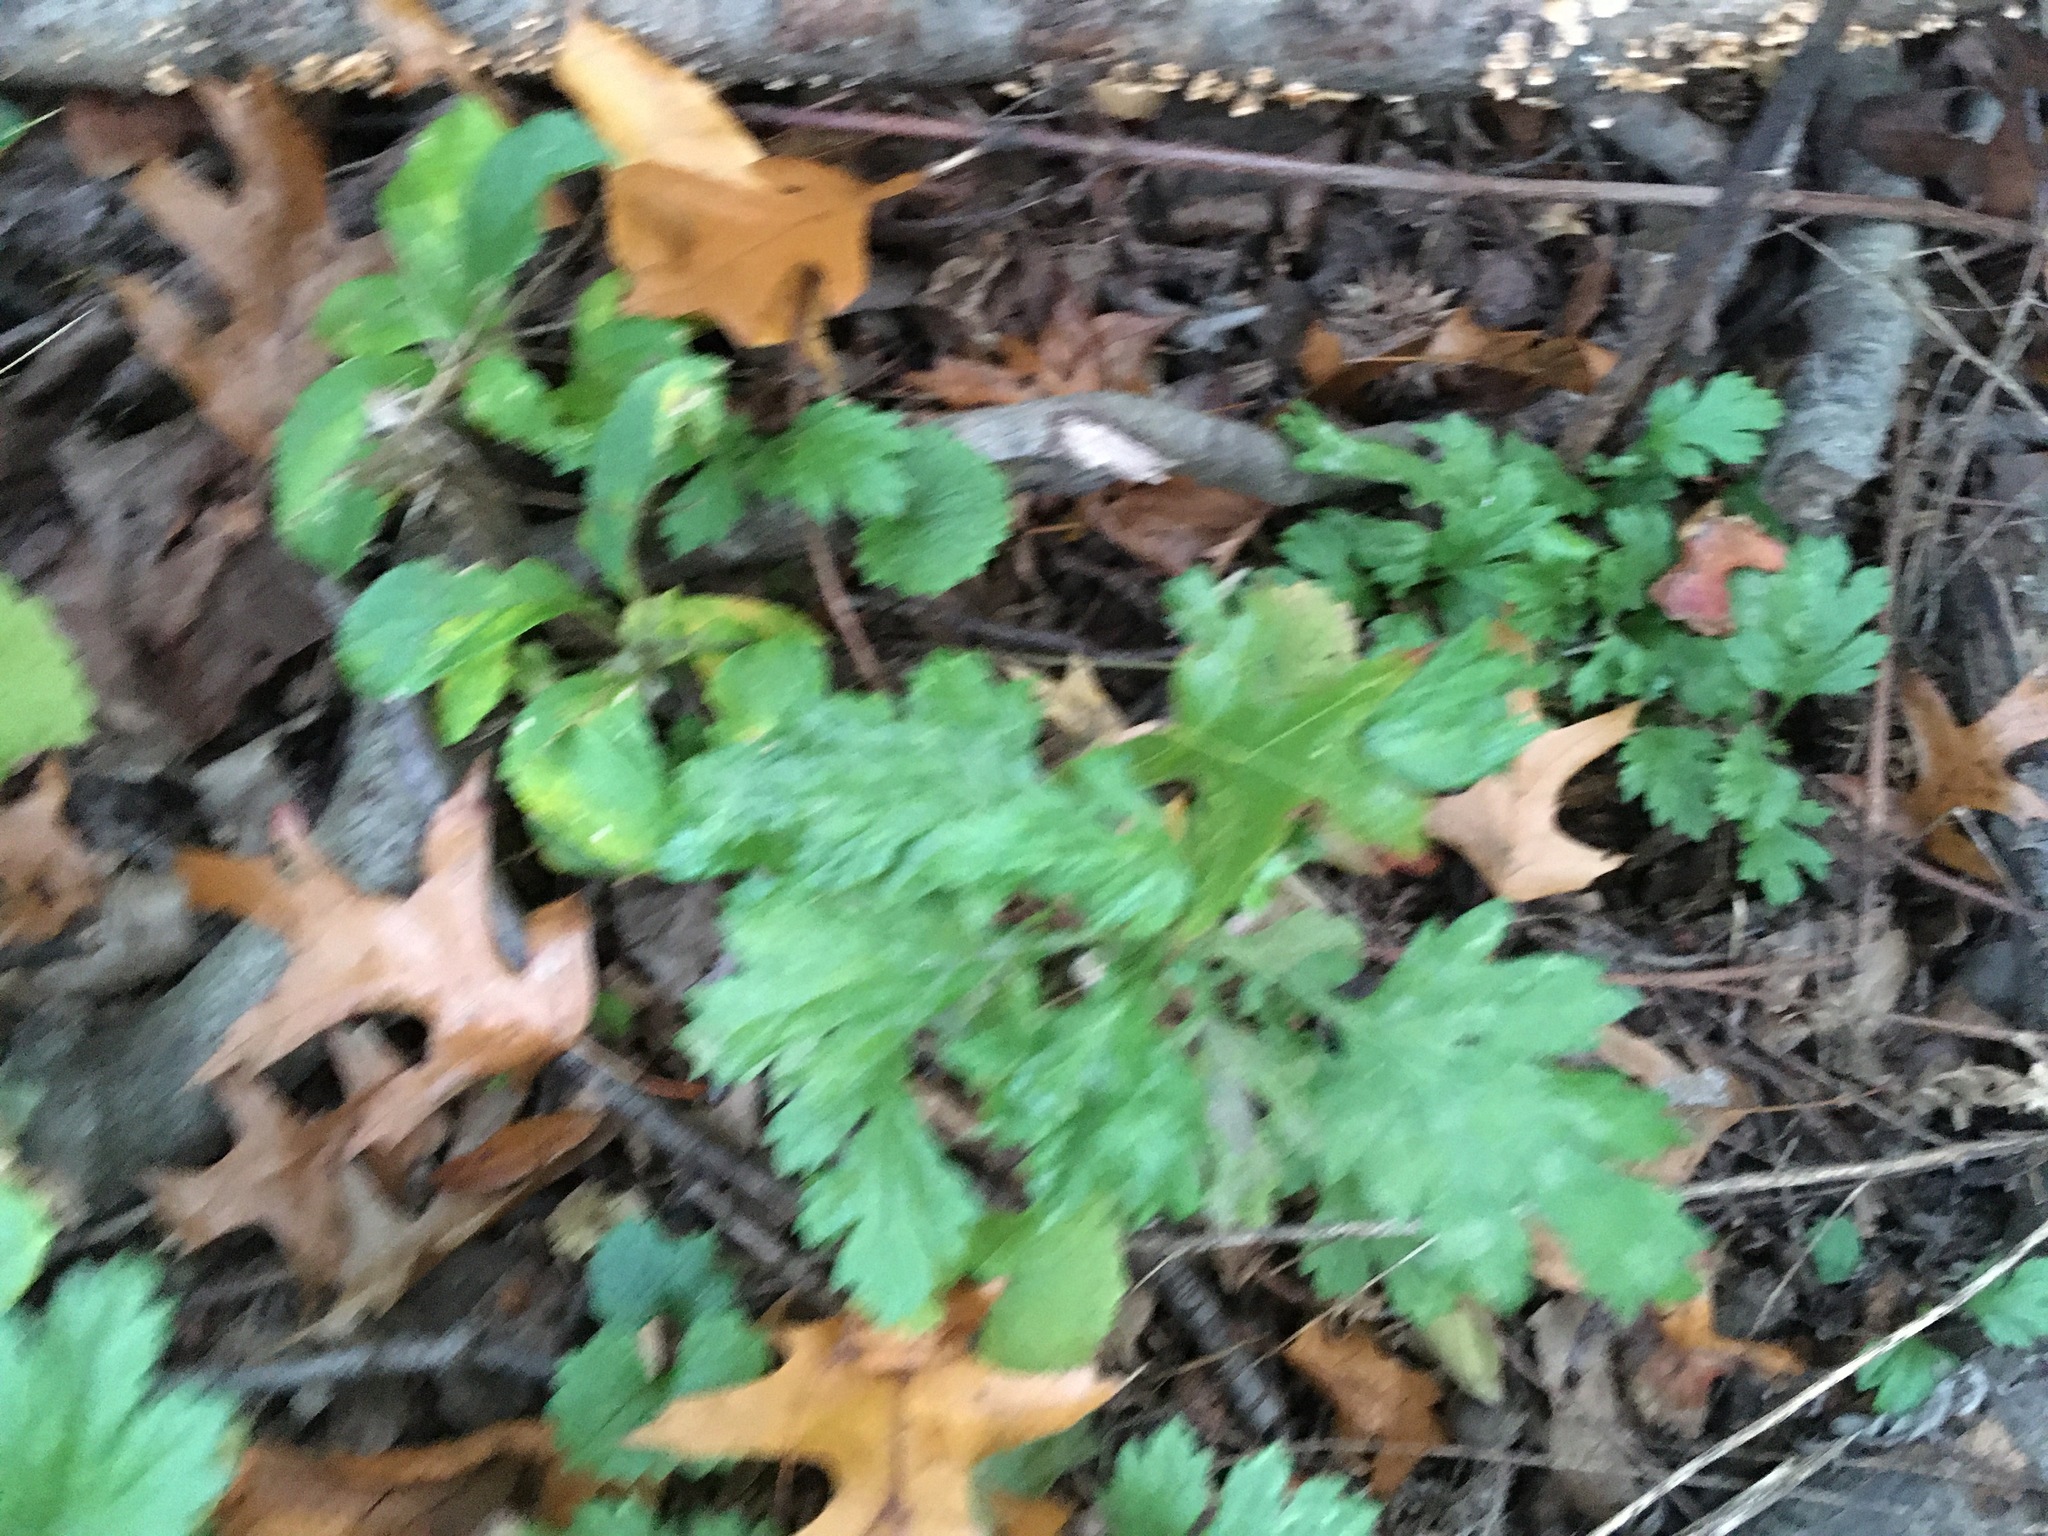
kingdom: Plantae
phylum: Tracheophyta
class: Magnoliopsida
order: Asterales
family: Asteraceae
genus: Artemisia
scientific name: Artemisia vulgaris
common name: Mugwort
